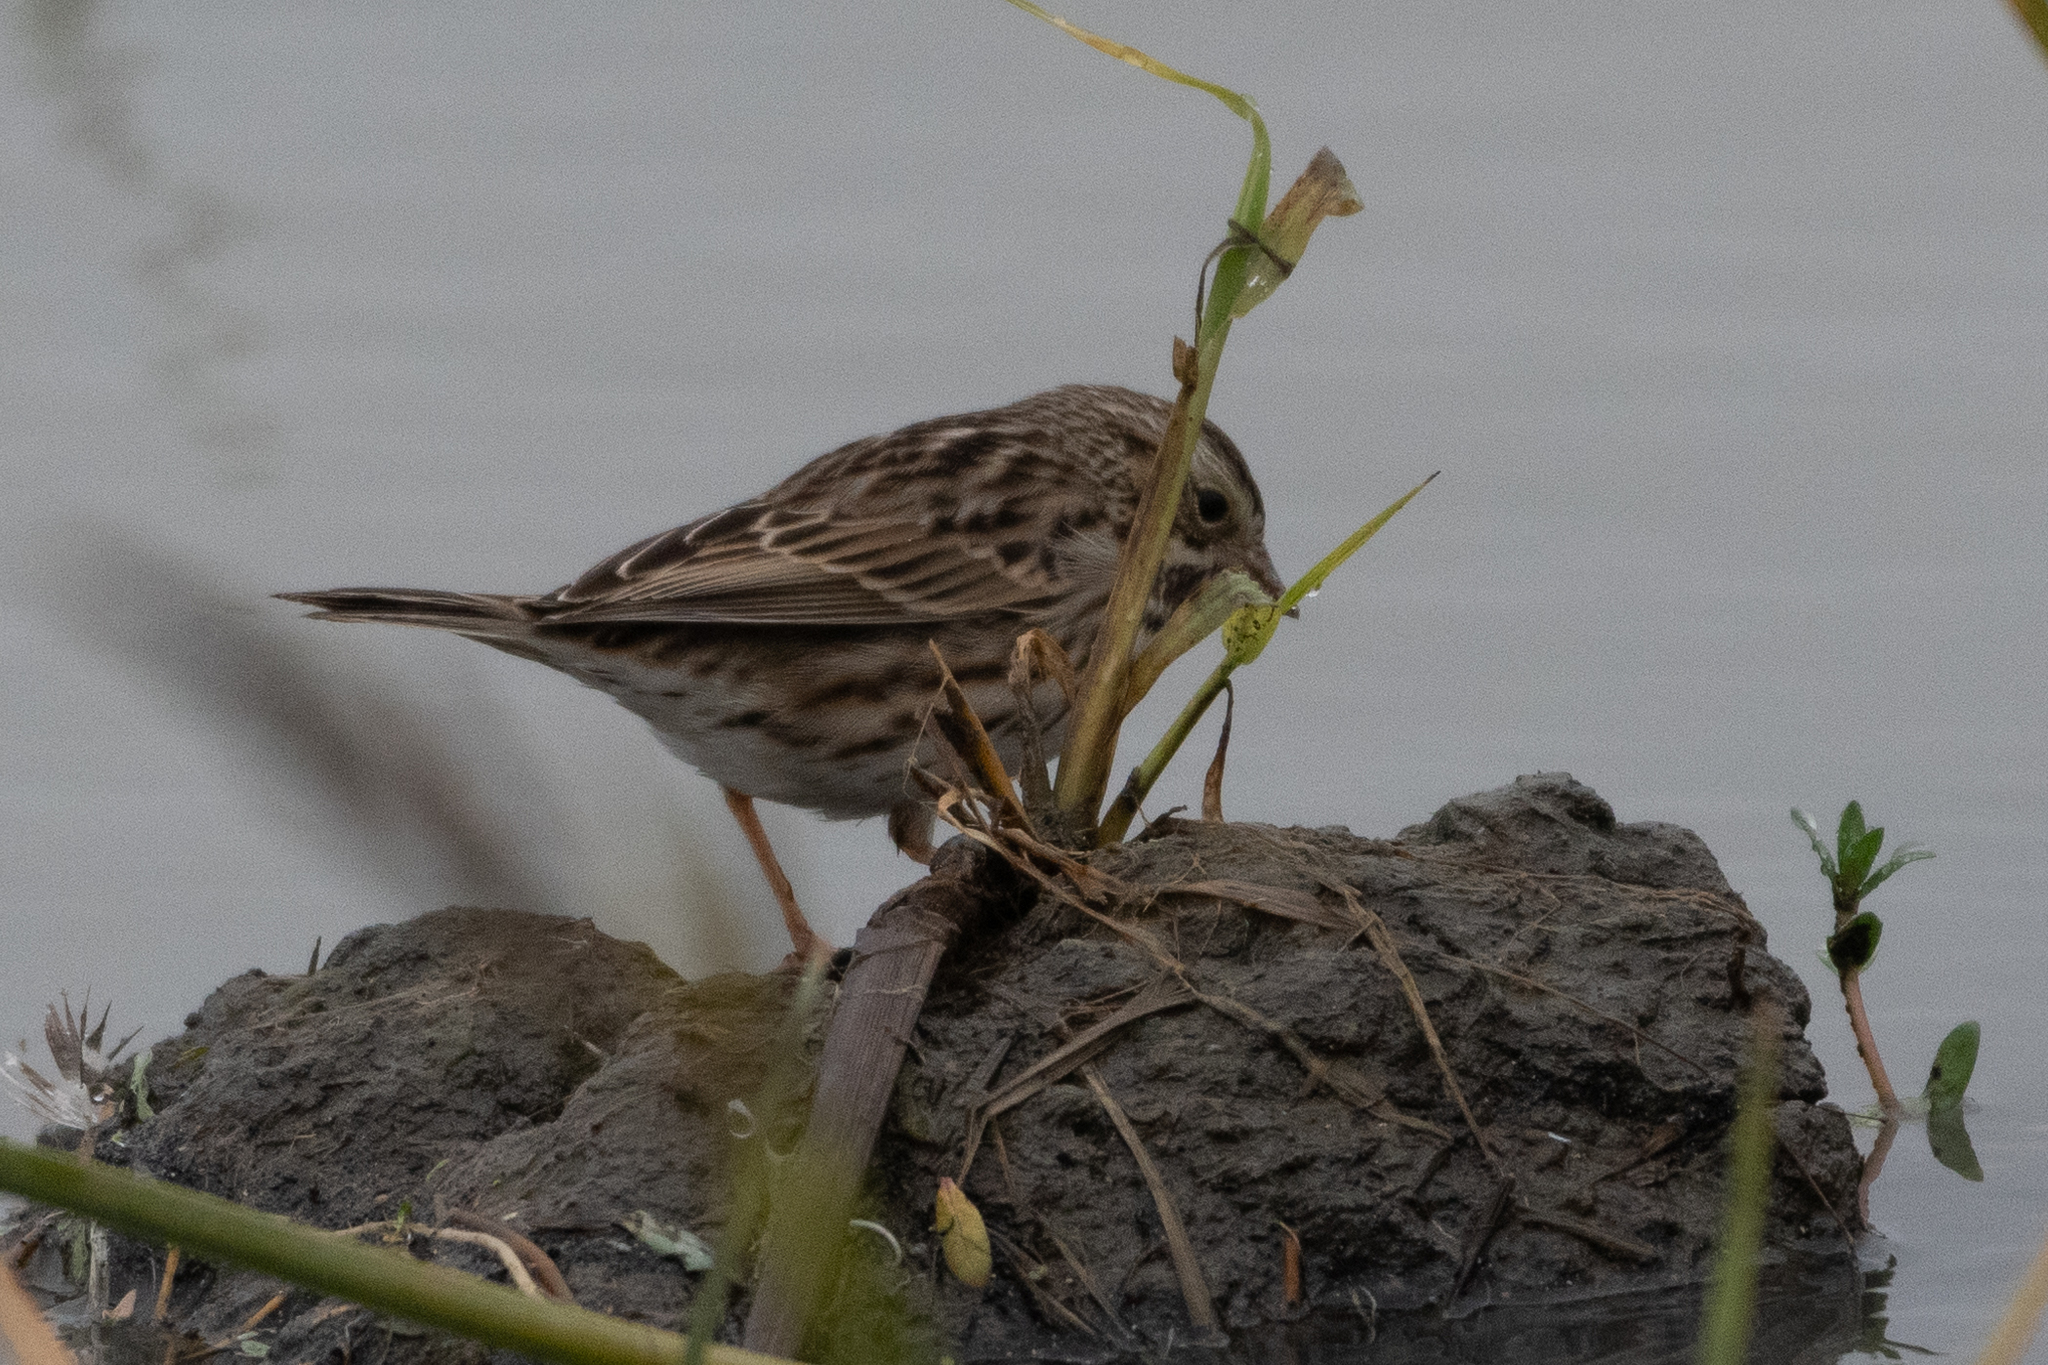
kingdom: Animalia
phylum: Chordata
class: Aves
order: Passeriformes
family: Passerellidae
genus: Passerculus
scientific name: Passerculus sandwichensis
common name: Savannah sparrow
